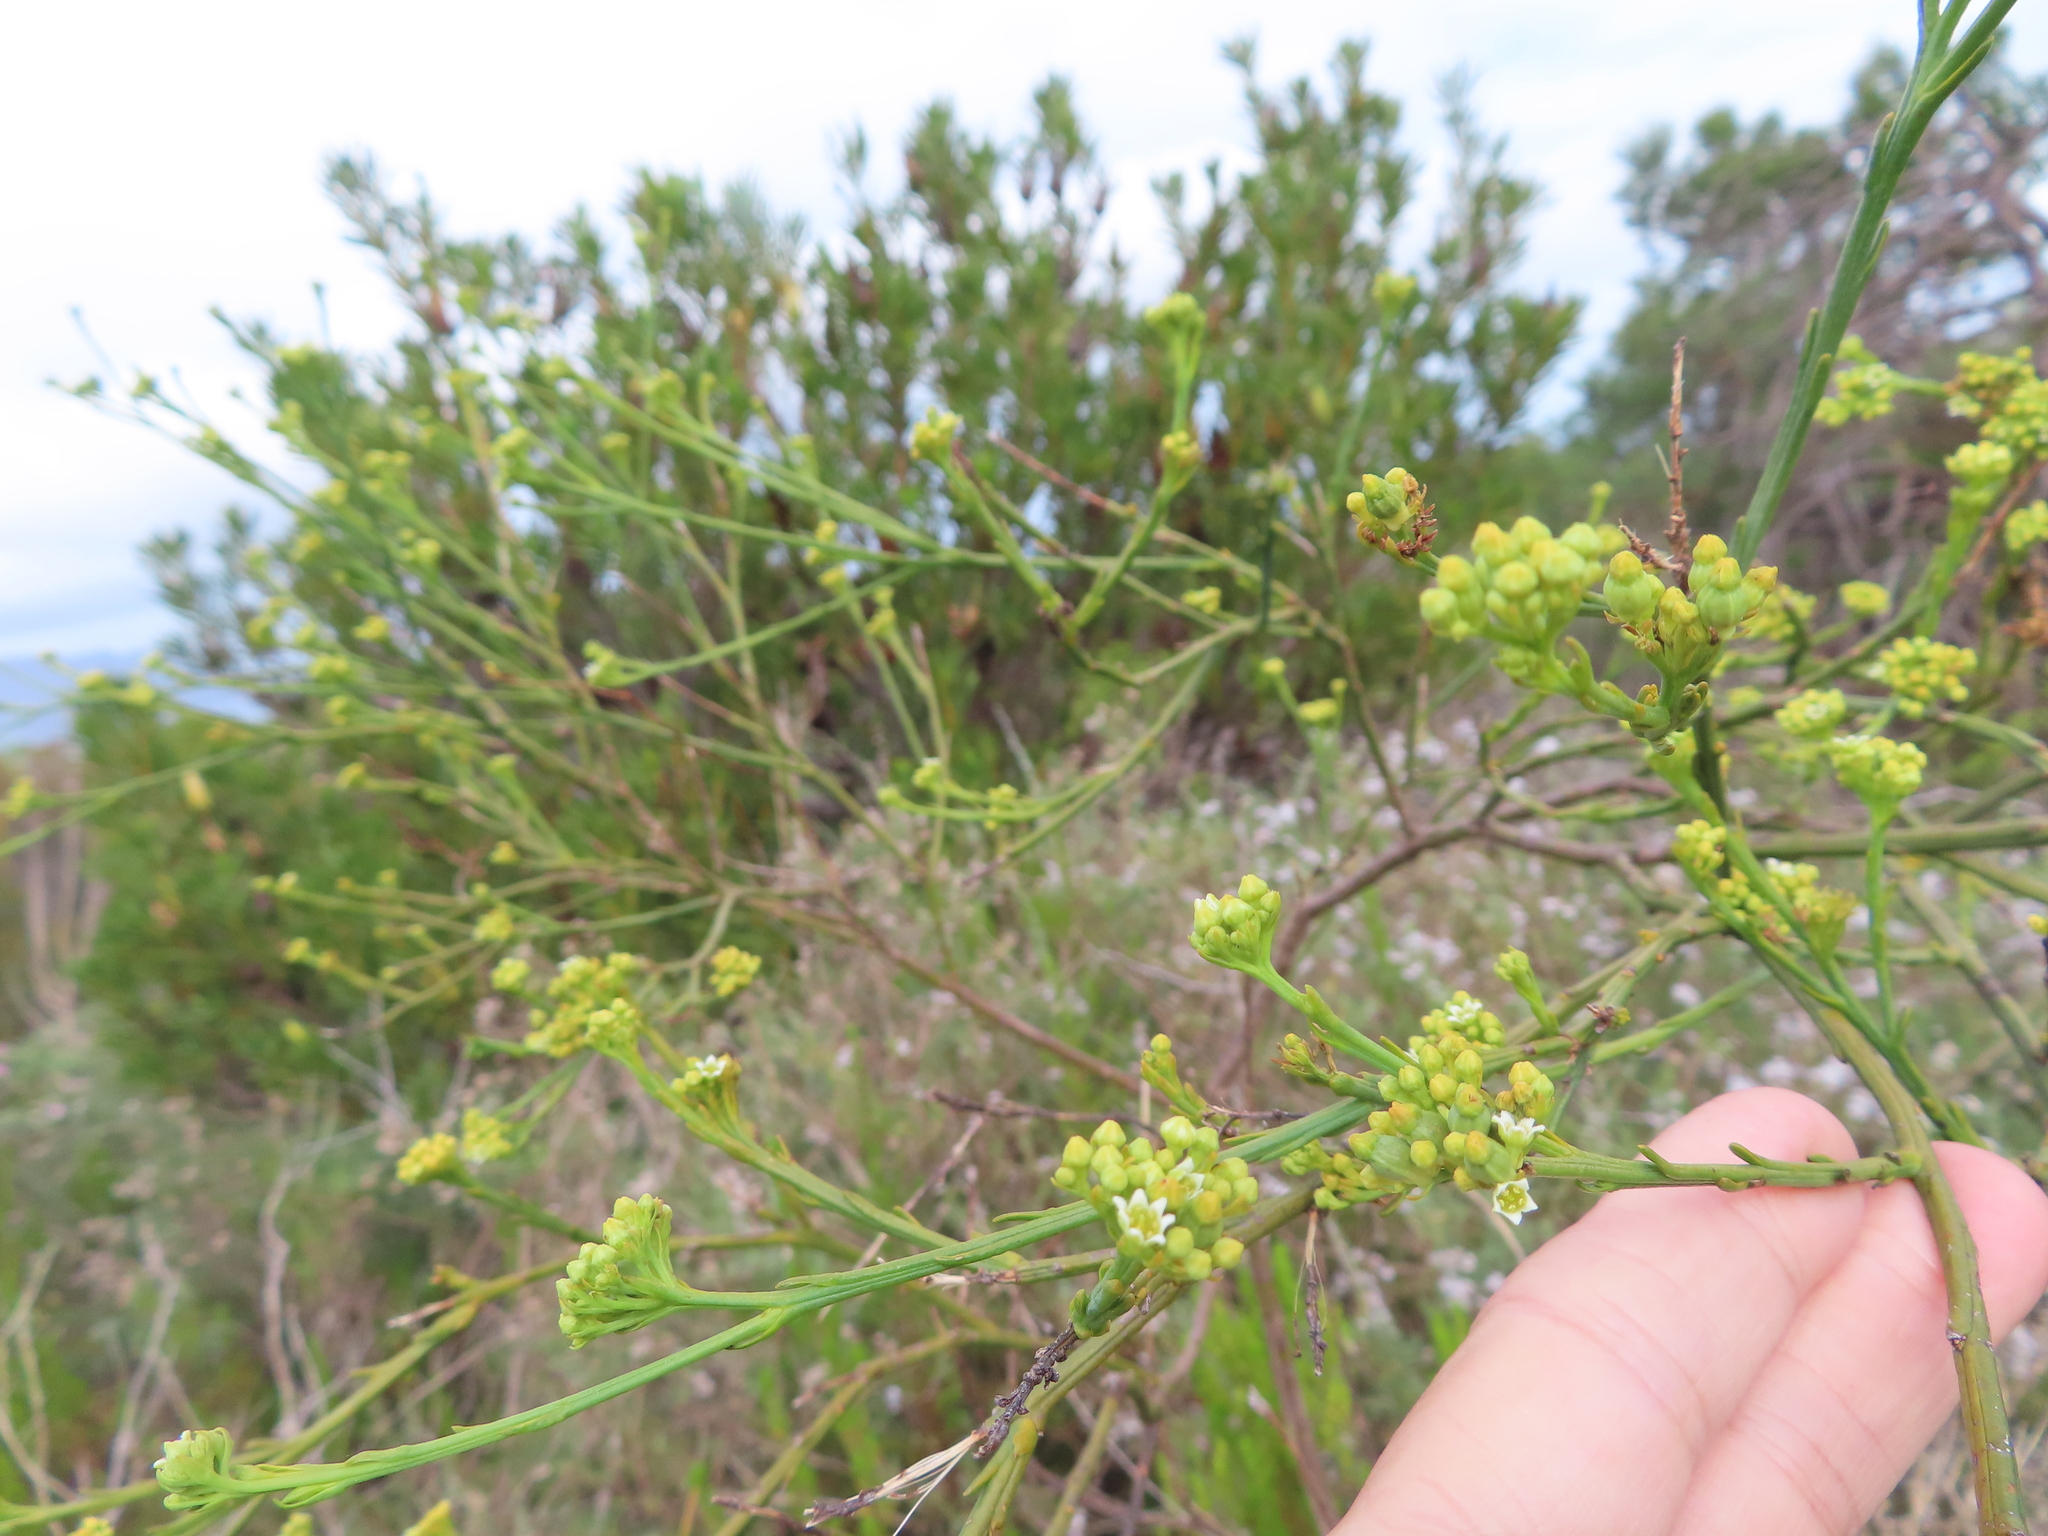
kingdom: Plantae
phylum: Tracheophyta
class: Magnoliopsida
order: Santalales
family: Thesiaceae
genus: Thesium
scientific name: Thesium strictum
